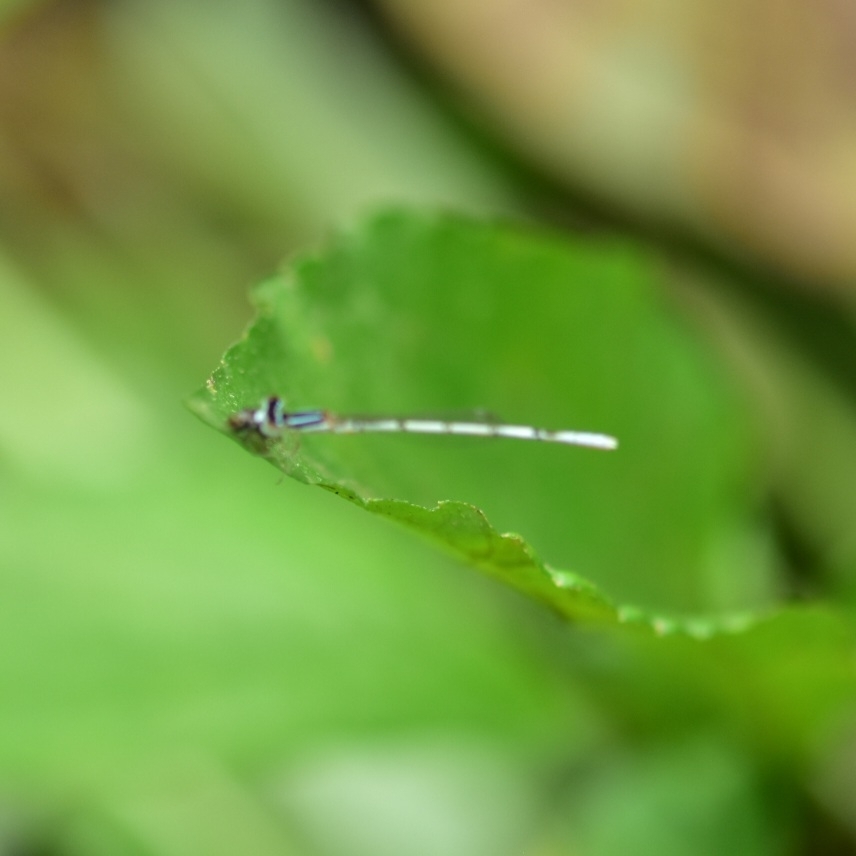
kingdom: Animalia
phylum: Arthropoda
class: Insecta
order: Odonata
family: Coenagrionidae
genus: Agriocnemis
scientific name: Agriocnemis pieris
